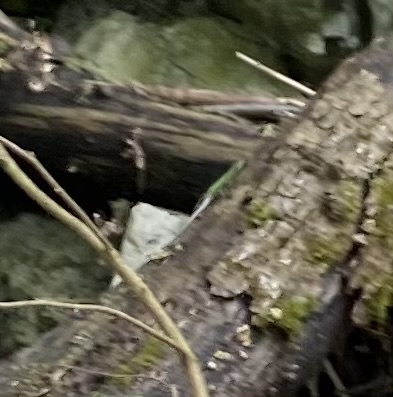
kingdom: Animalia
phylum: Chordata
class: Squamata
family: Lacertidae
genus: Darevskia
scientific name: Darevskia brauneri
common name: Brauner's rock lizard
